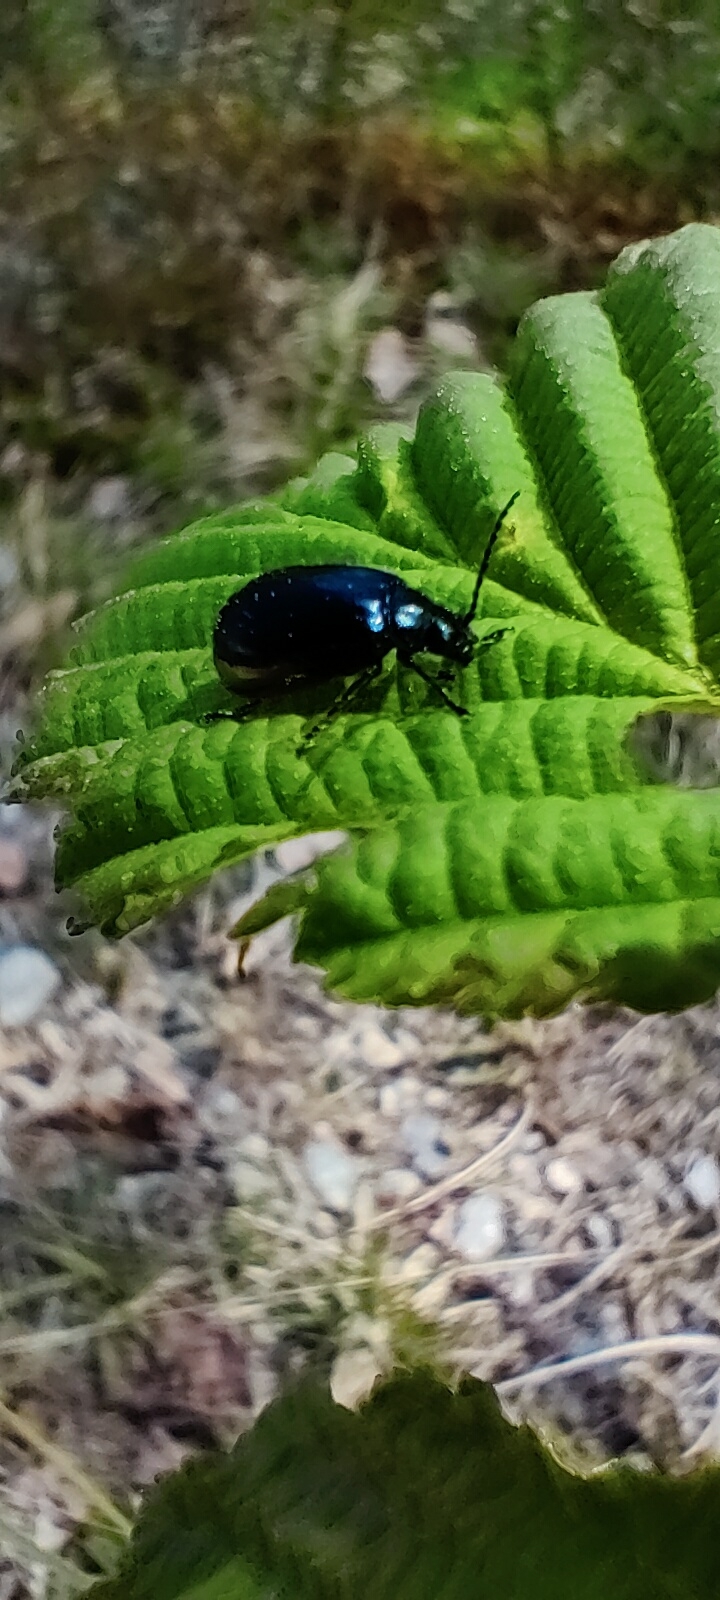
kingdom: Animalia
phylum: Arthropoda
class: Insecta
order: Coleoptera
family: Chrysomelidae
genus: Agelastica
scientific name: Agelastica alni
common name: Alder leaf beetle
